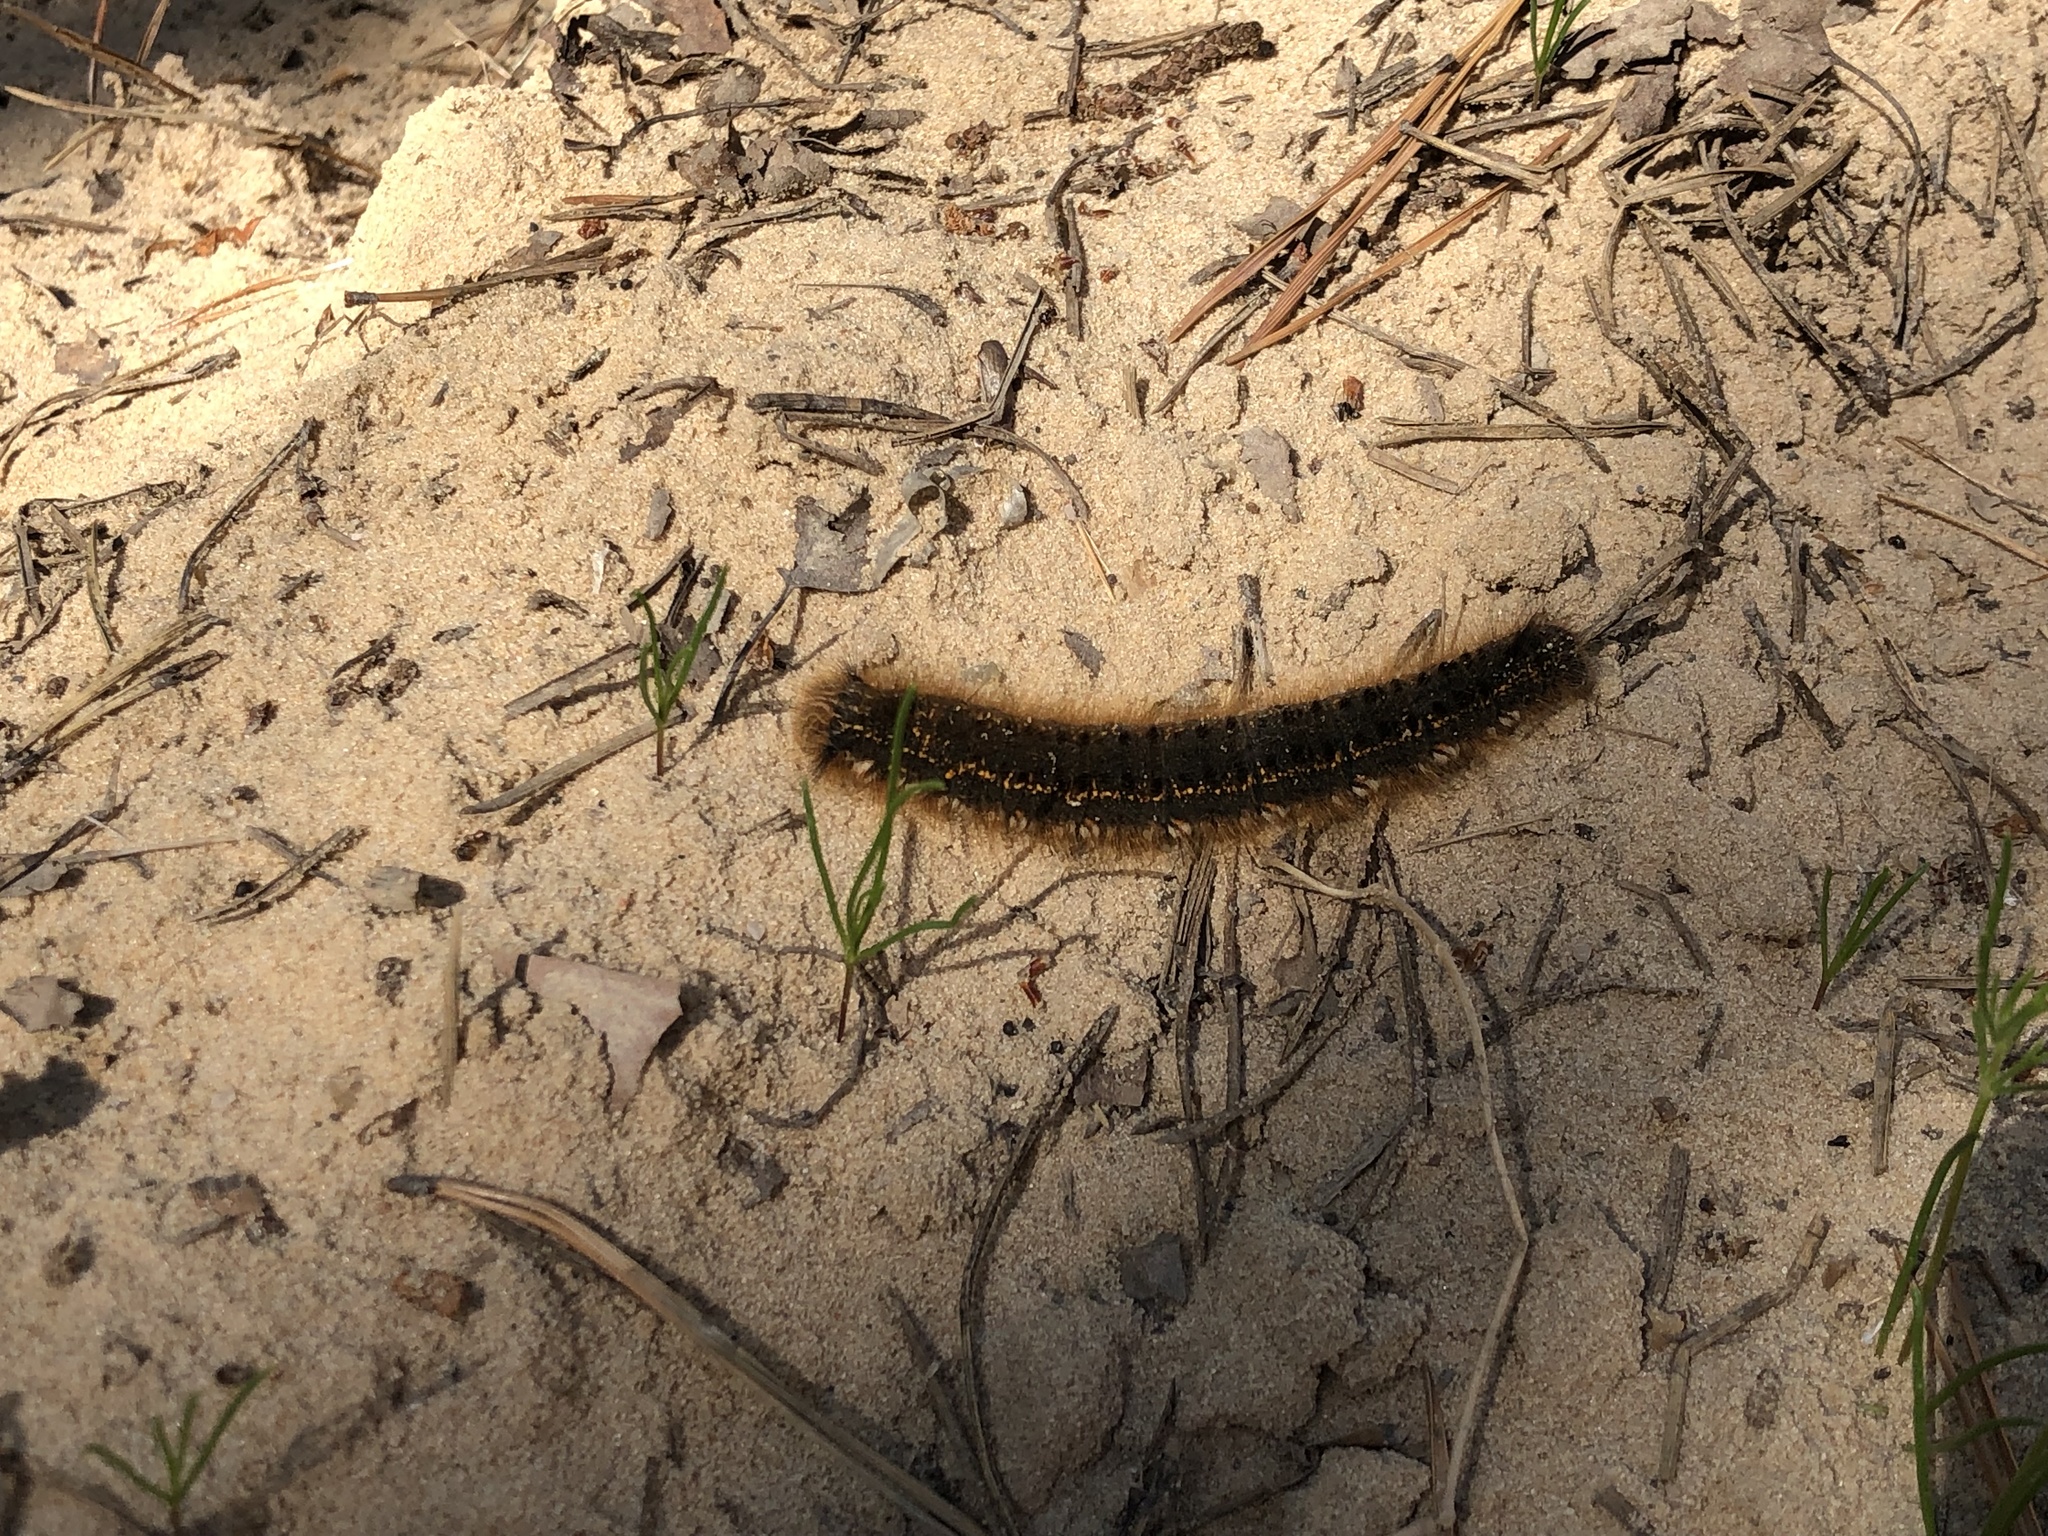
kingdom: Animalia
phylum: Arthropoda
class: Insecta
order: Lepidoptera
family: Lasiocampidae
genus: Euthrix
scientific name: Euthrix potatoria
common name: Drinker
